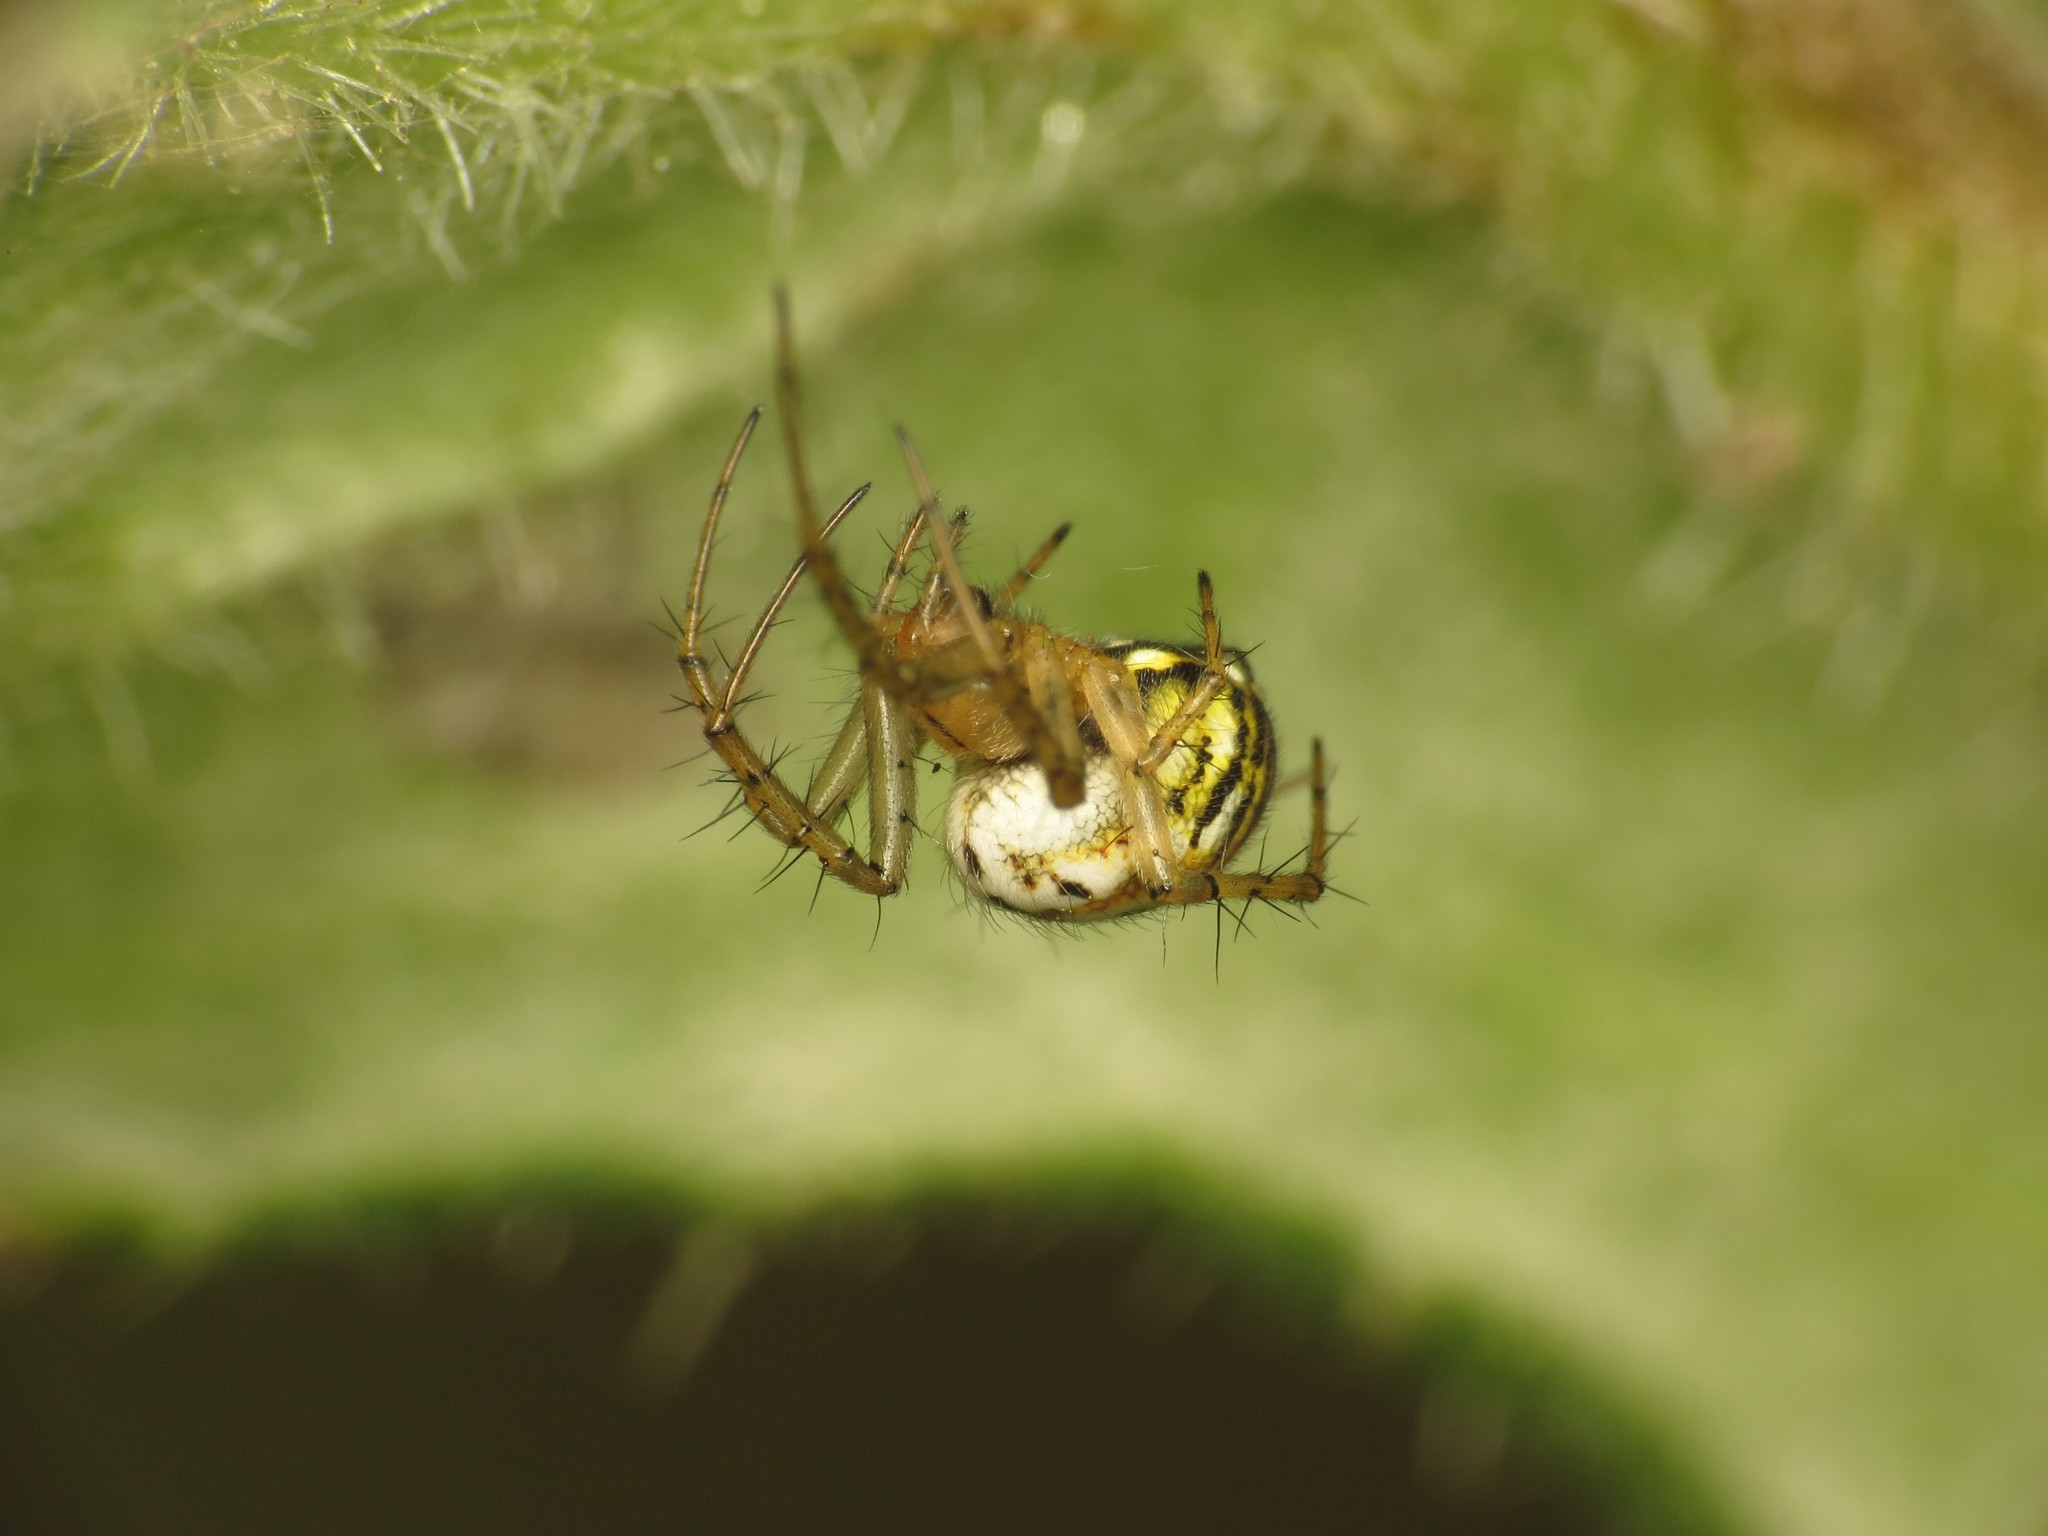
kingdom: Animalia
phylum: Arthropoda
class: Arachnida
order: Araneae
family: Araneidae
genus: Mangora
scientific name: Mangora acalypha
